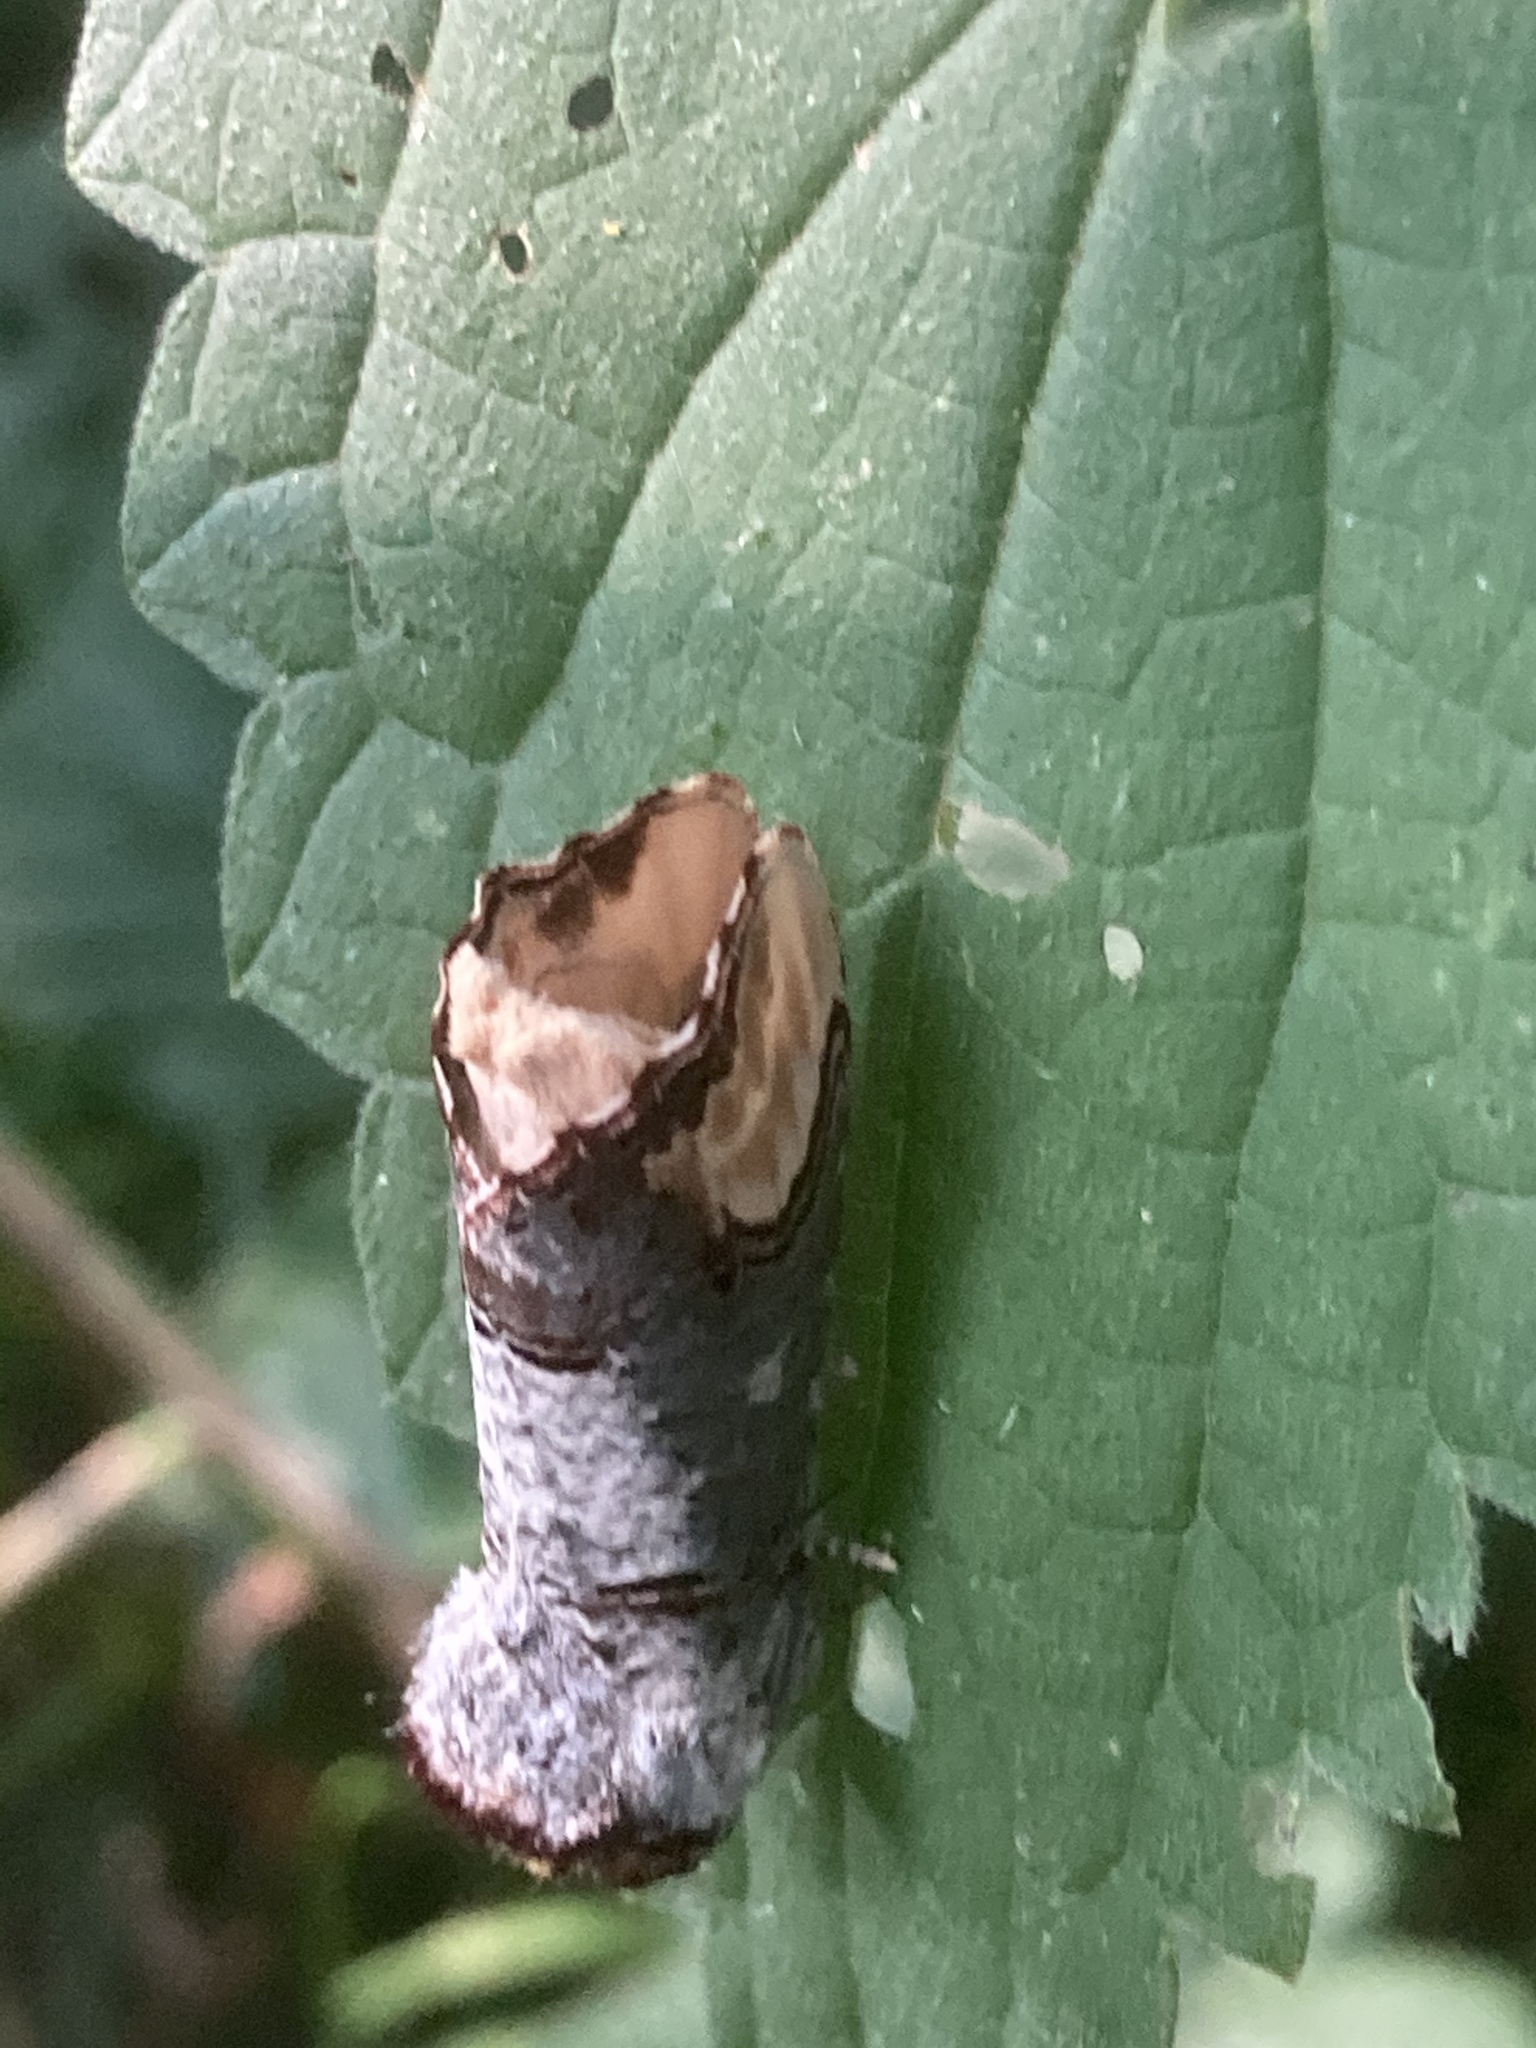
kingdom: Animalia
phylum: Arthropoda
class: Insecta
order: Lepidoptera
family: Notodontidae
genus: Phalera
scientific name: Phalera bucephala
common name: Buff-tip
